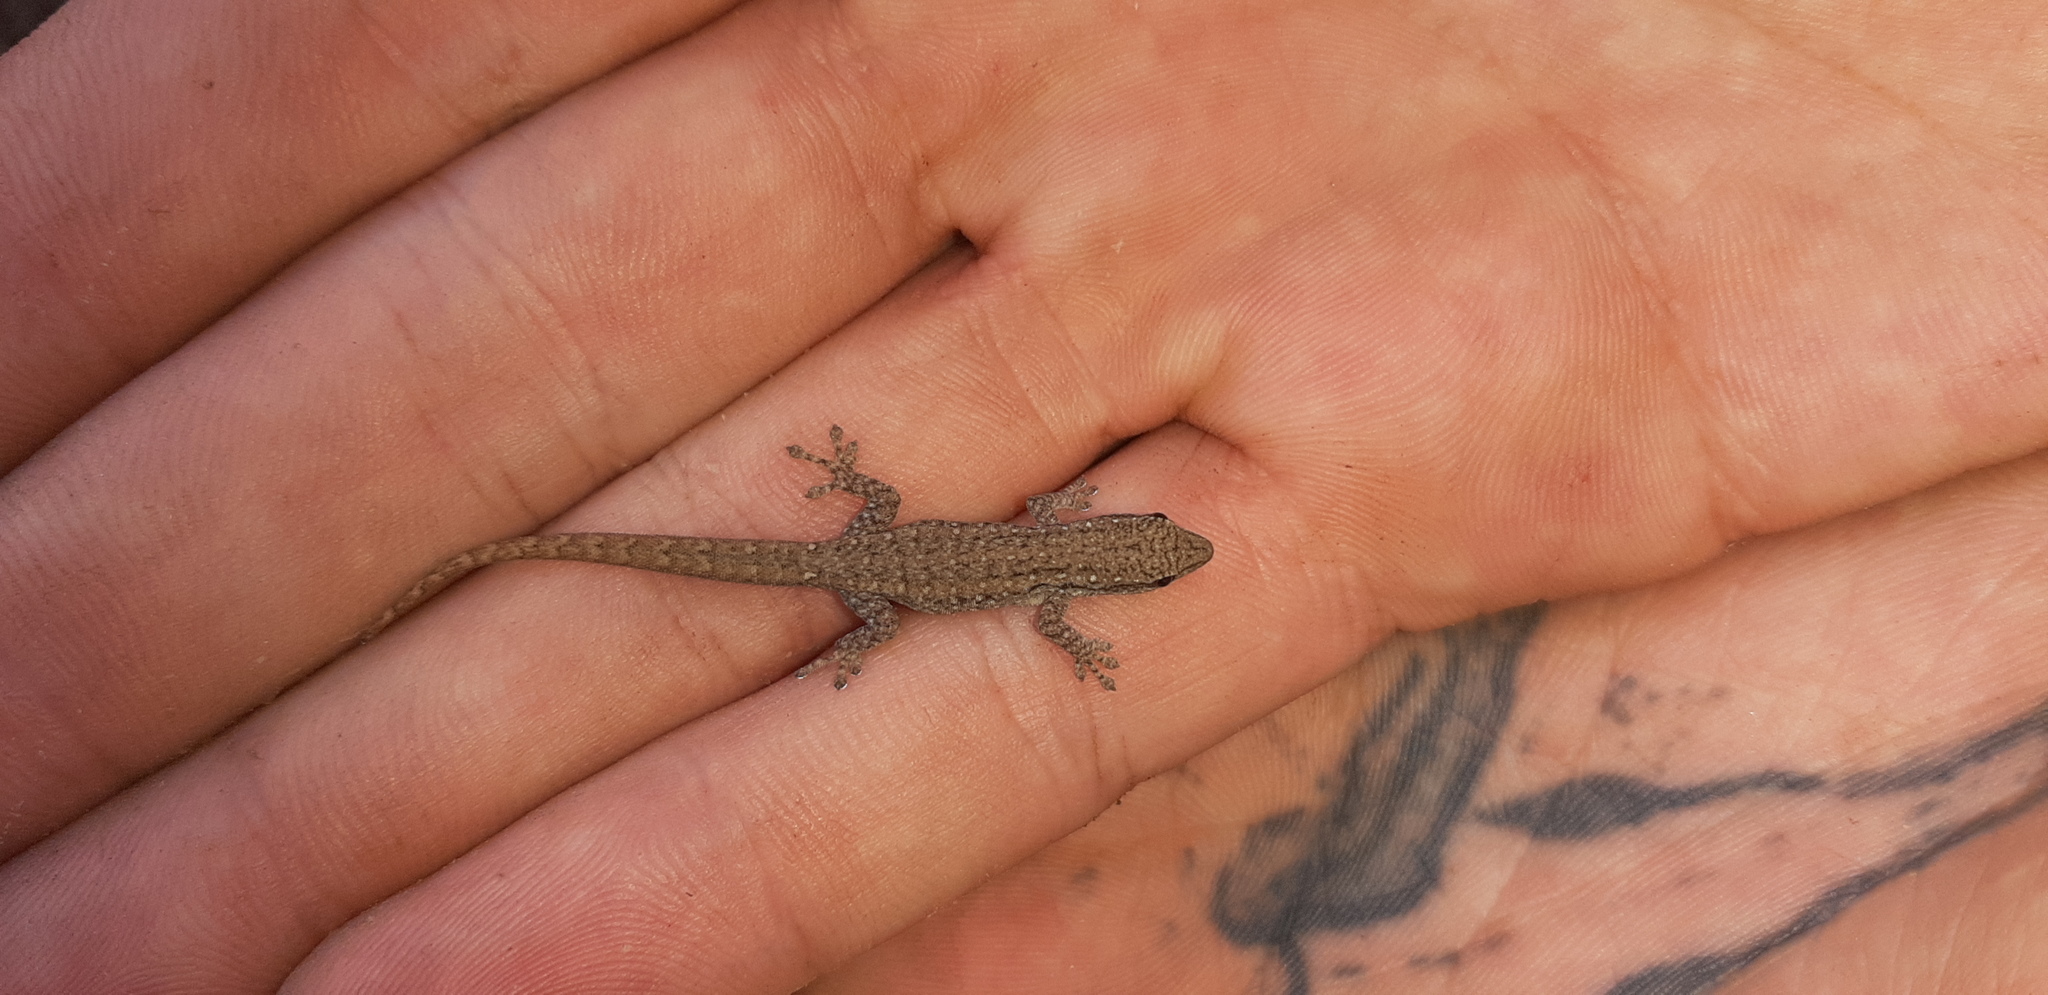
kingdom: Animalia
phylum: Chordata
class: Squamata
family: Gekkonidae
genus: Lygodactylus
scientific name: Lygodactylus capensis
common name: Cape dwarf gecko
